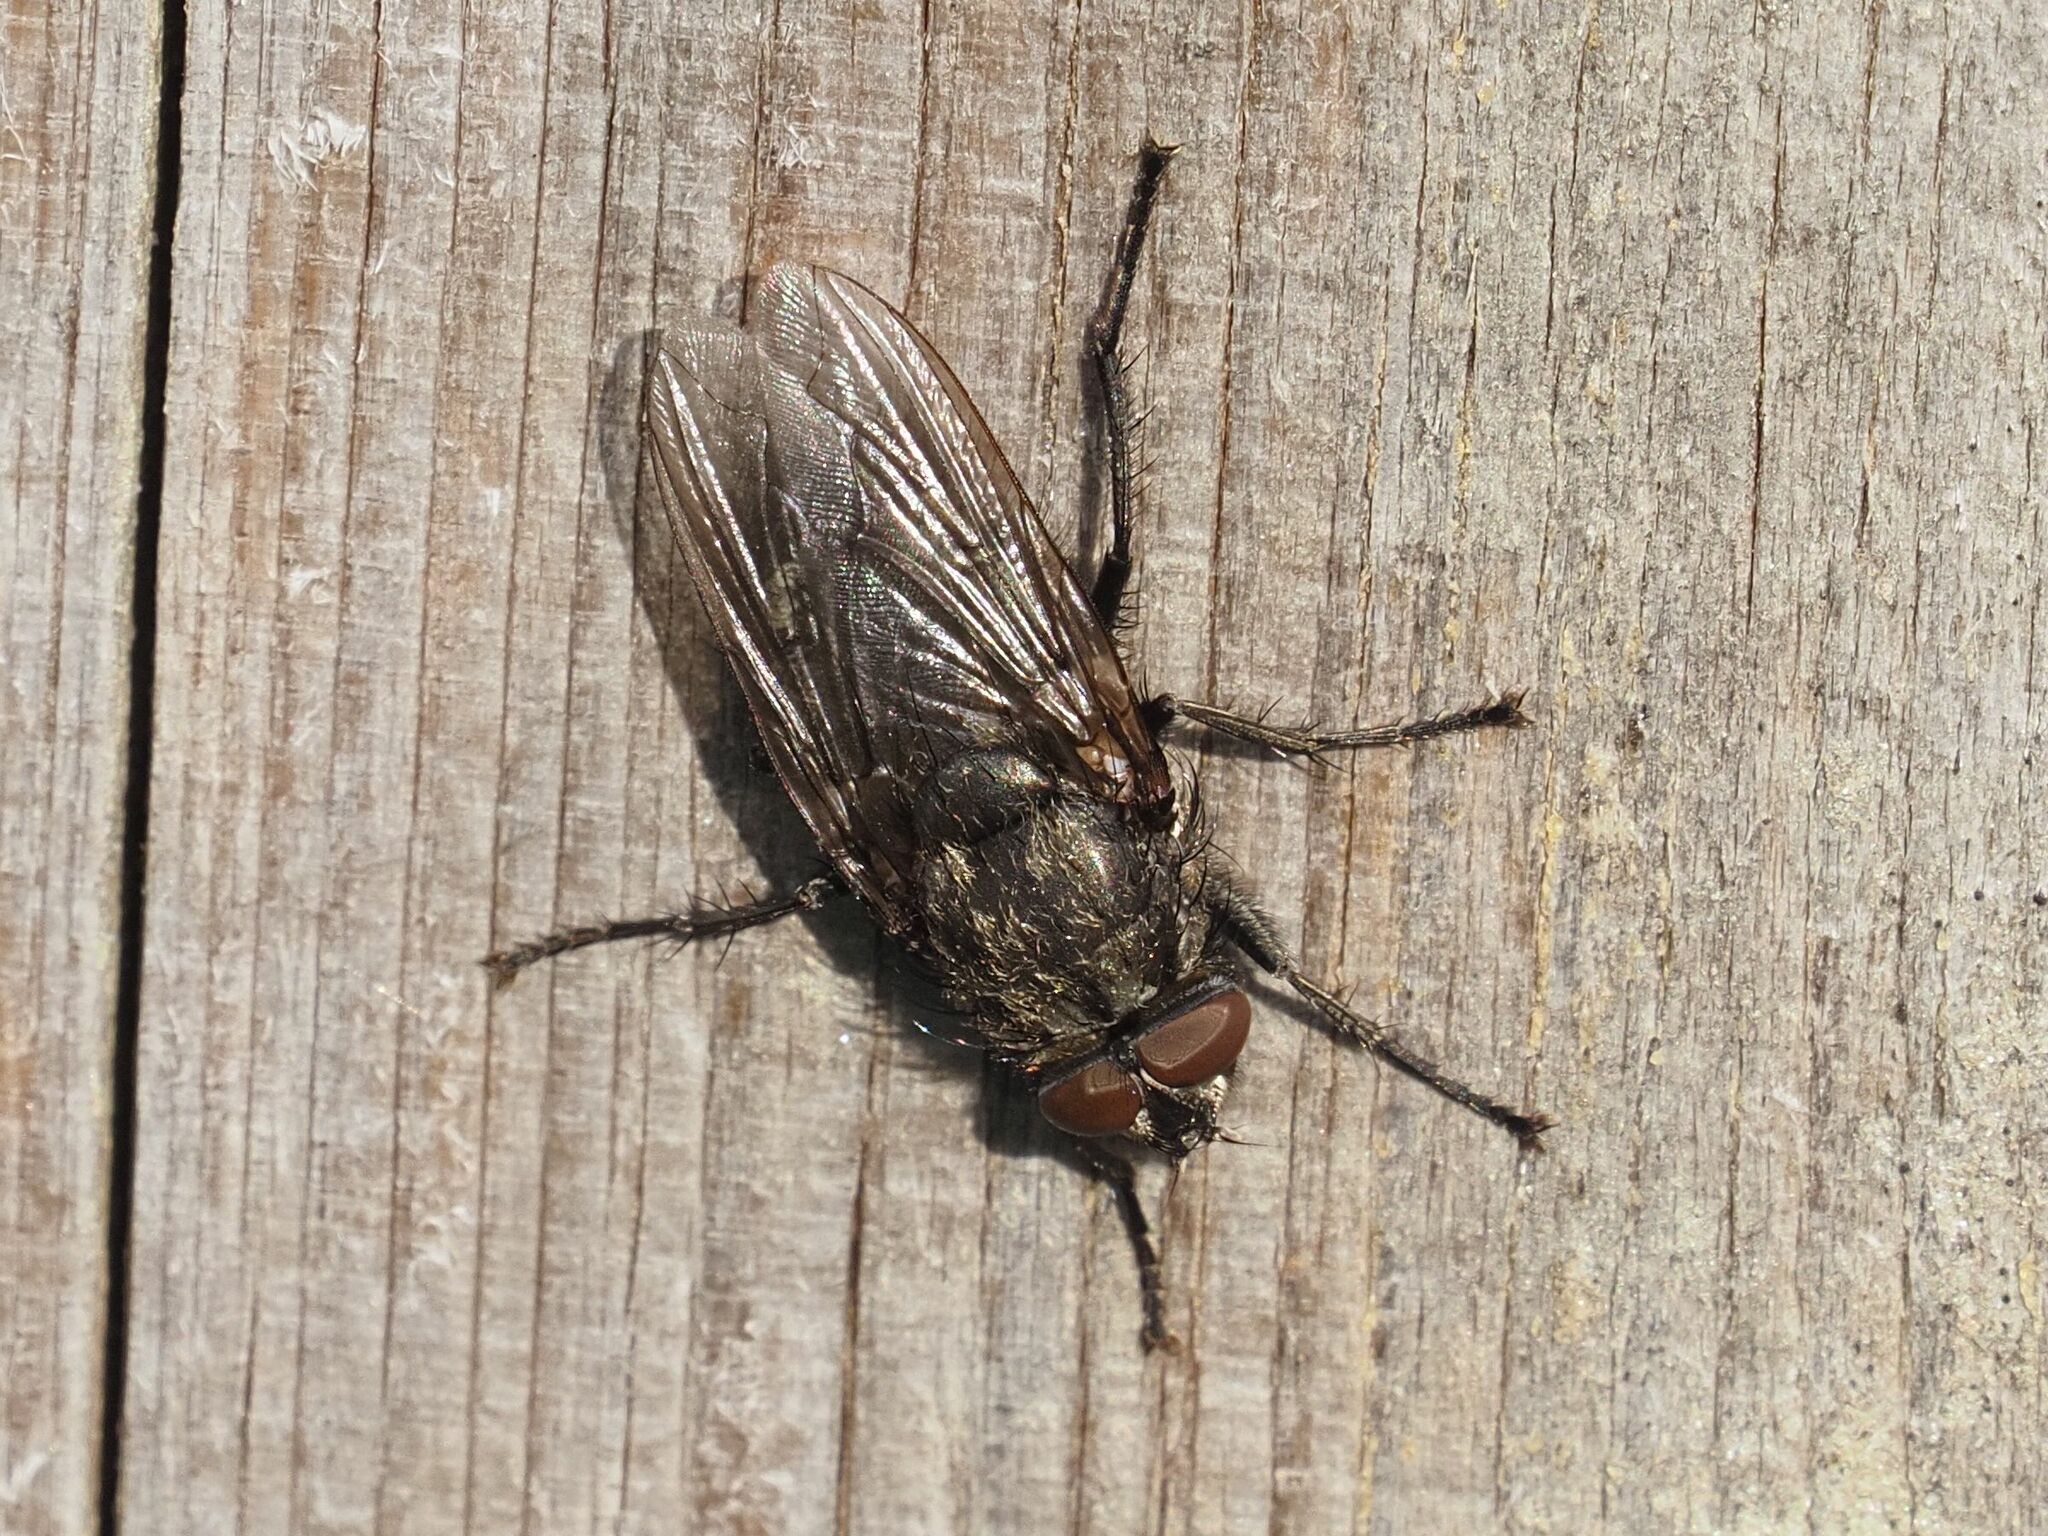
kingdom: Animalia
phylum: Arthropoda
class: Insecta
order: Diptera
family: Polleniidae
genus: Pollenia
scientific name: Pollenia vagabunda
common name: Vagabund cluster fly
